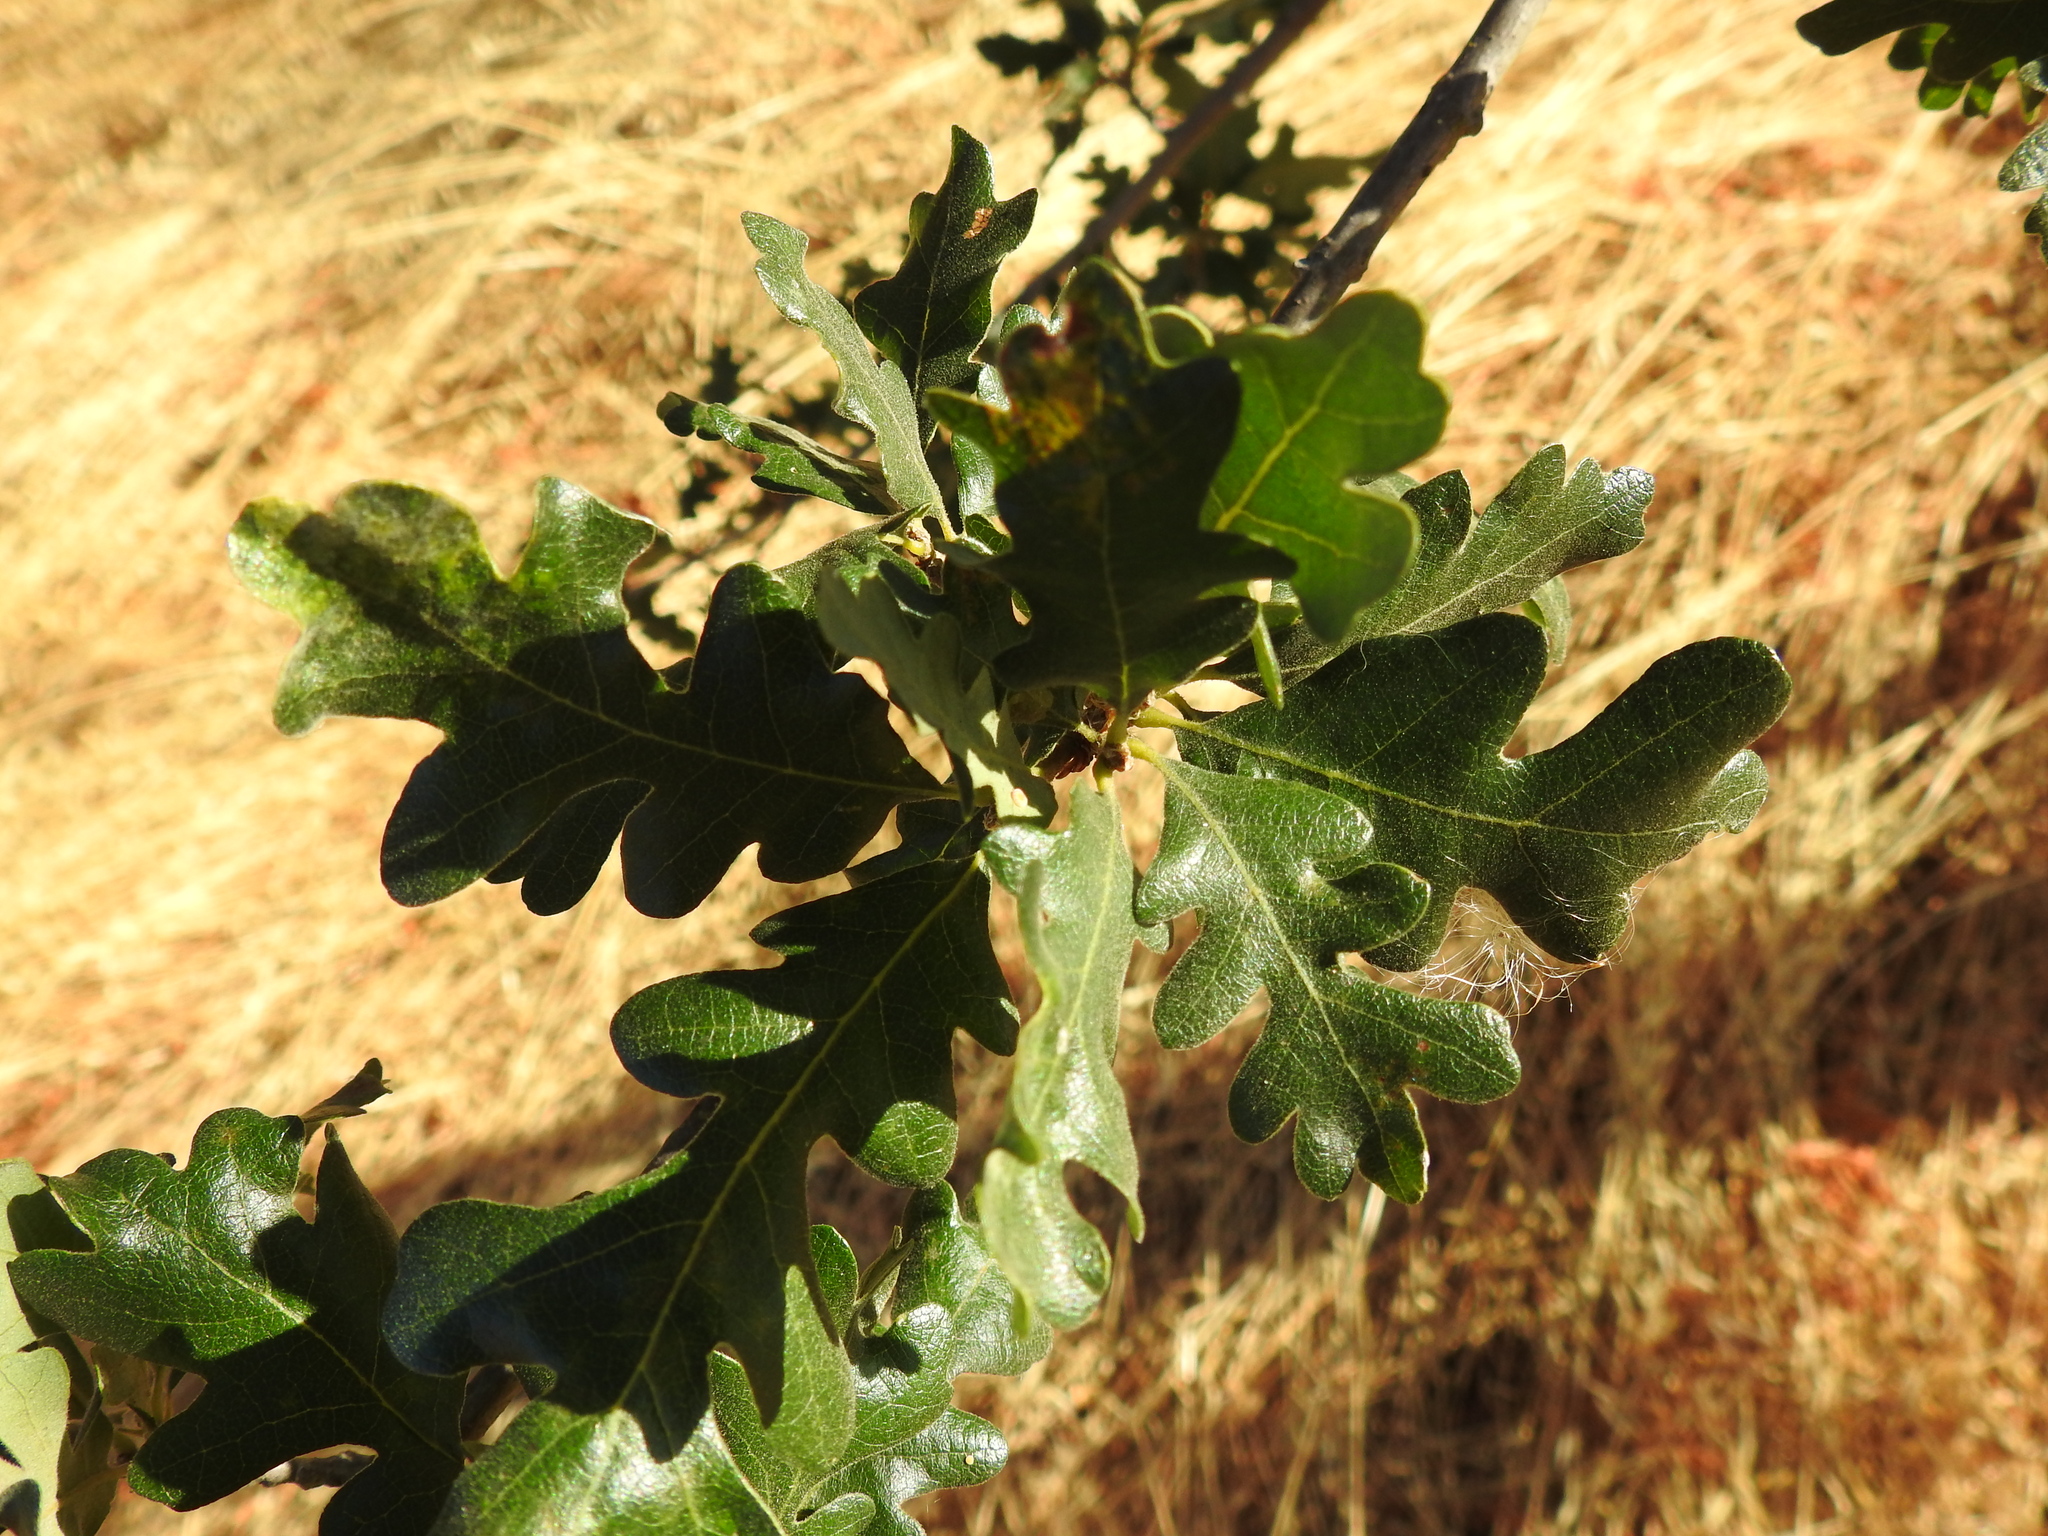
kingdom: Plantae
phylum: Tracheophyta
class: Magnoliopsida
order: Fagales
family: Fagaceae
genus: Quercus
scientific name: Quercus lobata
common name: Valley oak
